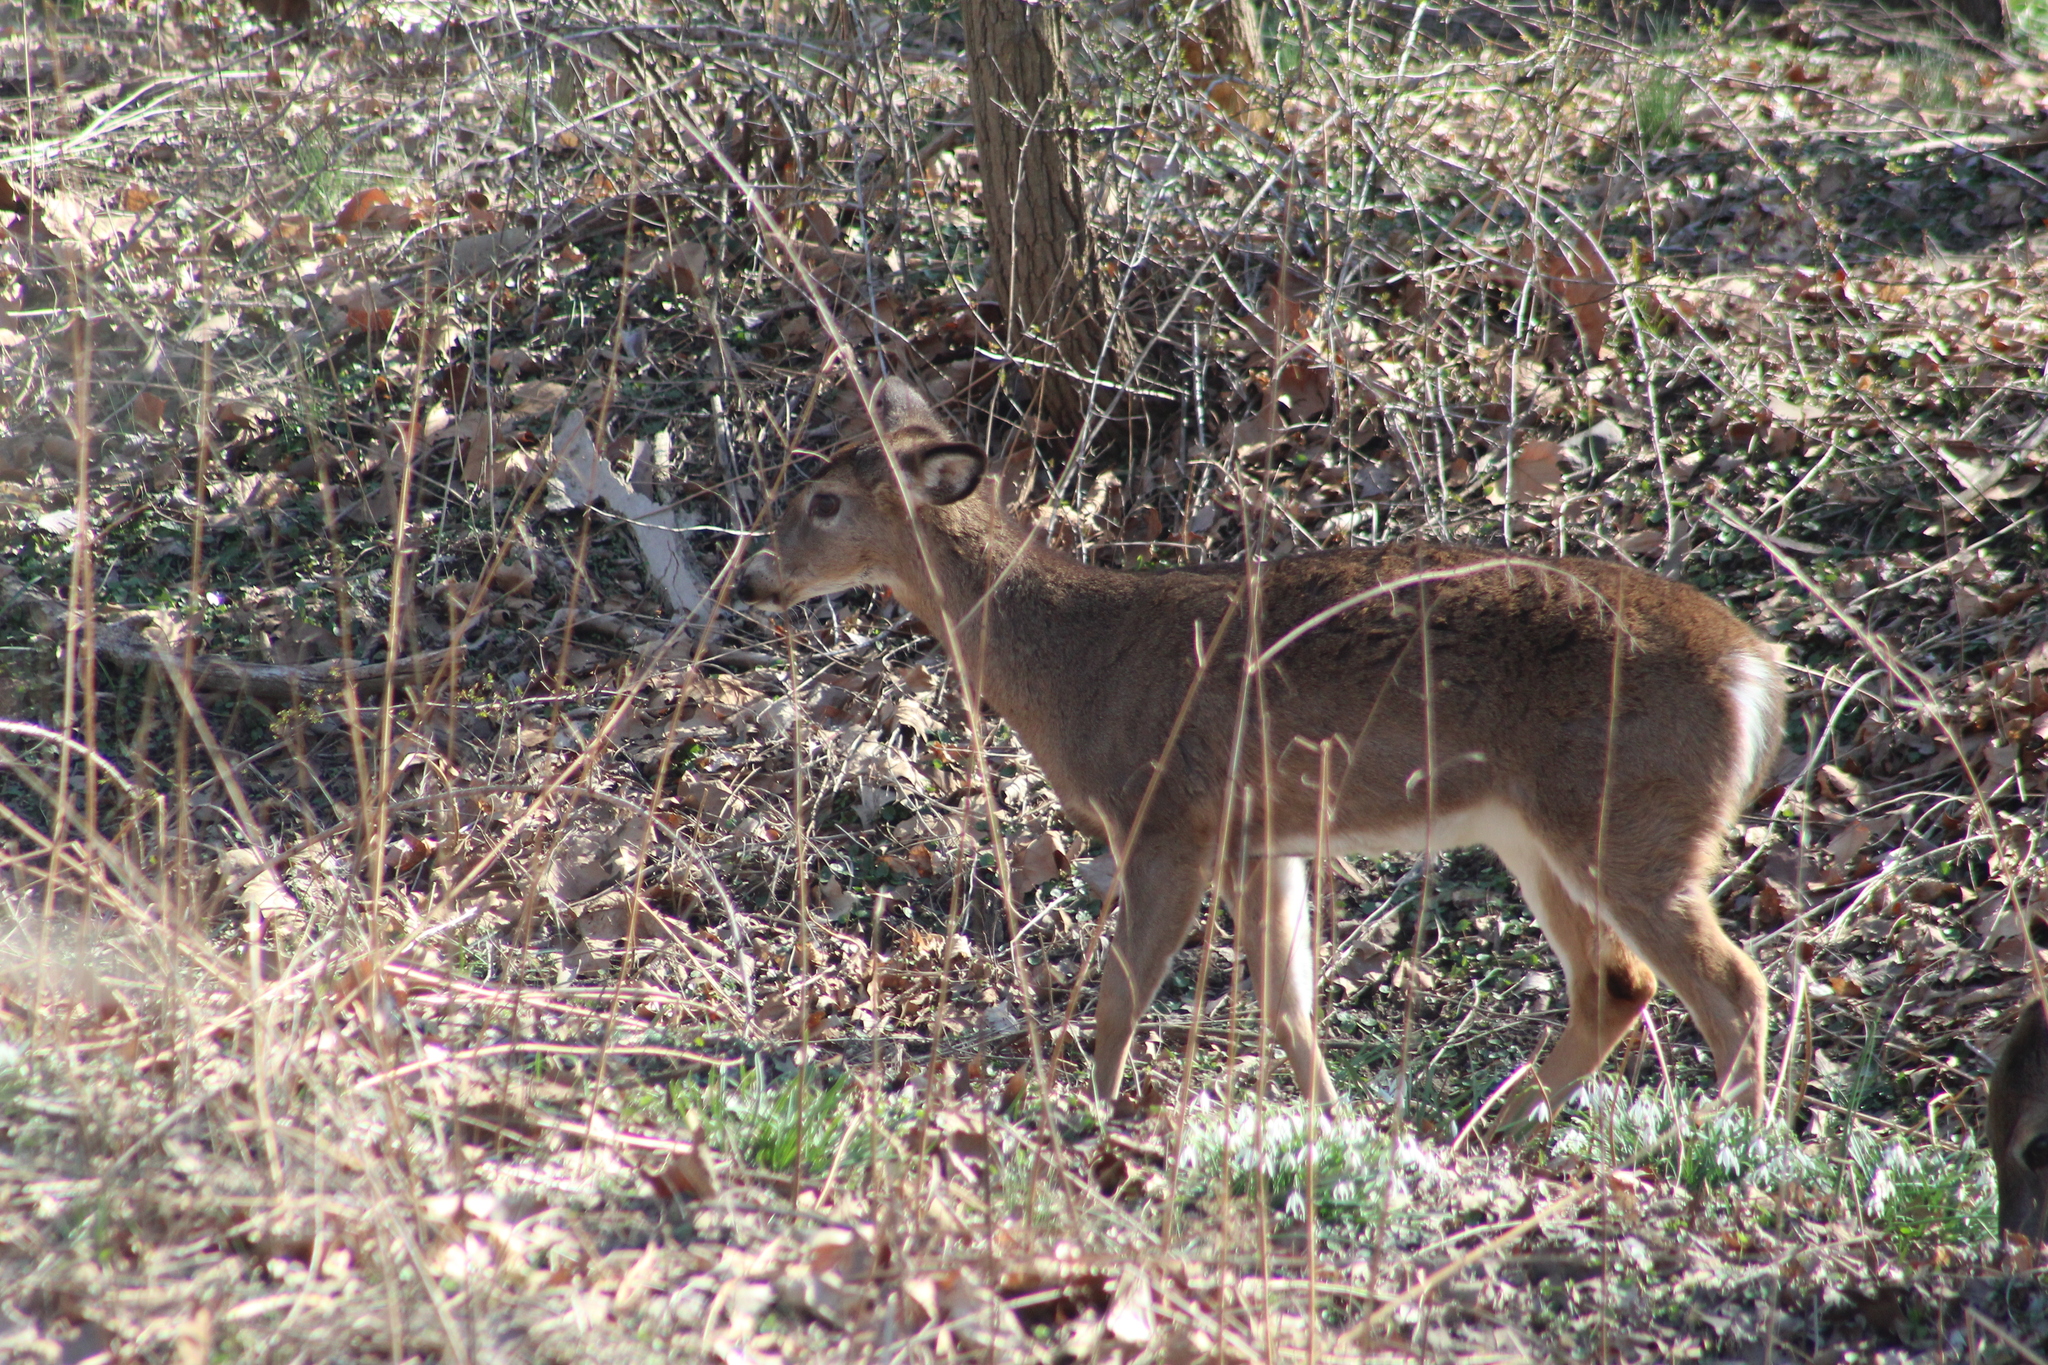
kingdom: Animalia
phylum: Chordata
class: Mammalia
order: Artiodactyla
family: Cervidae
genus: Odocoileus
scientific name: Odocoileus virginianus
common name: White-tailed deer
